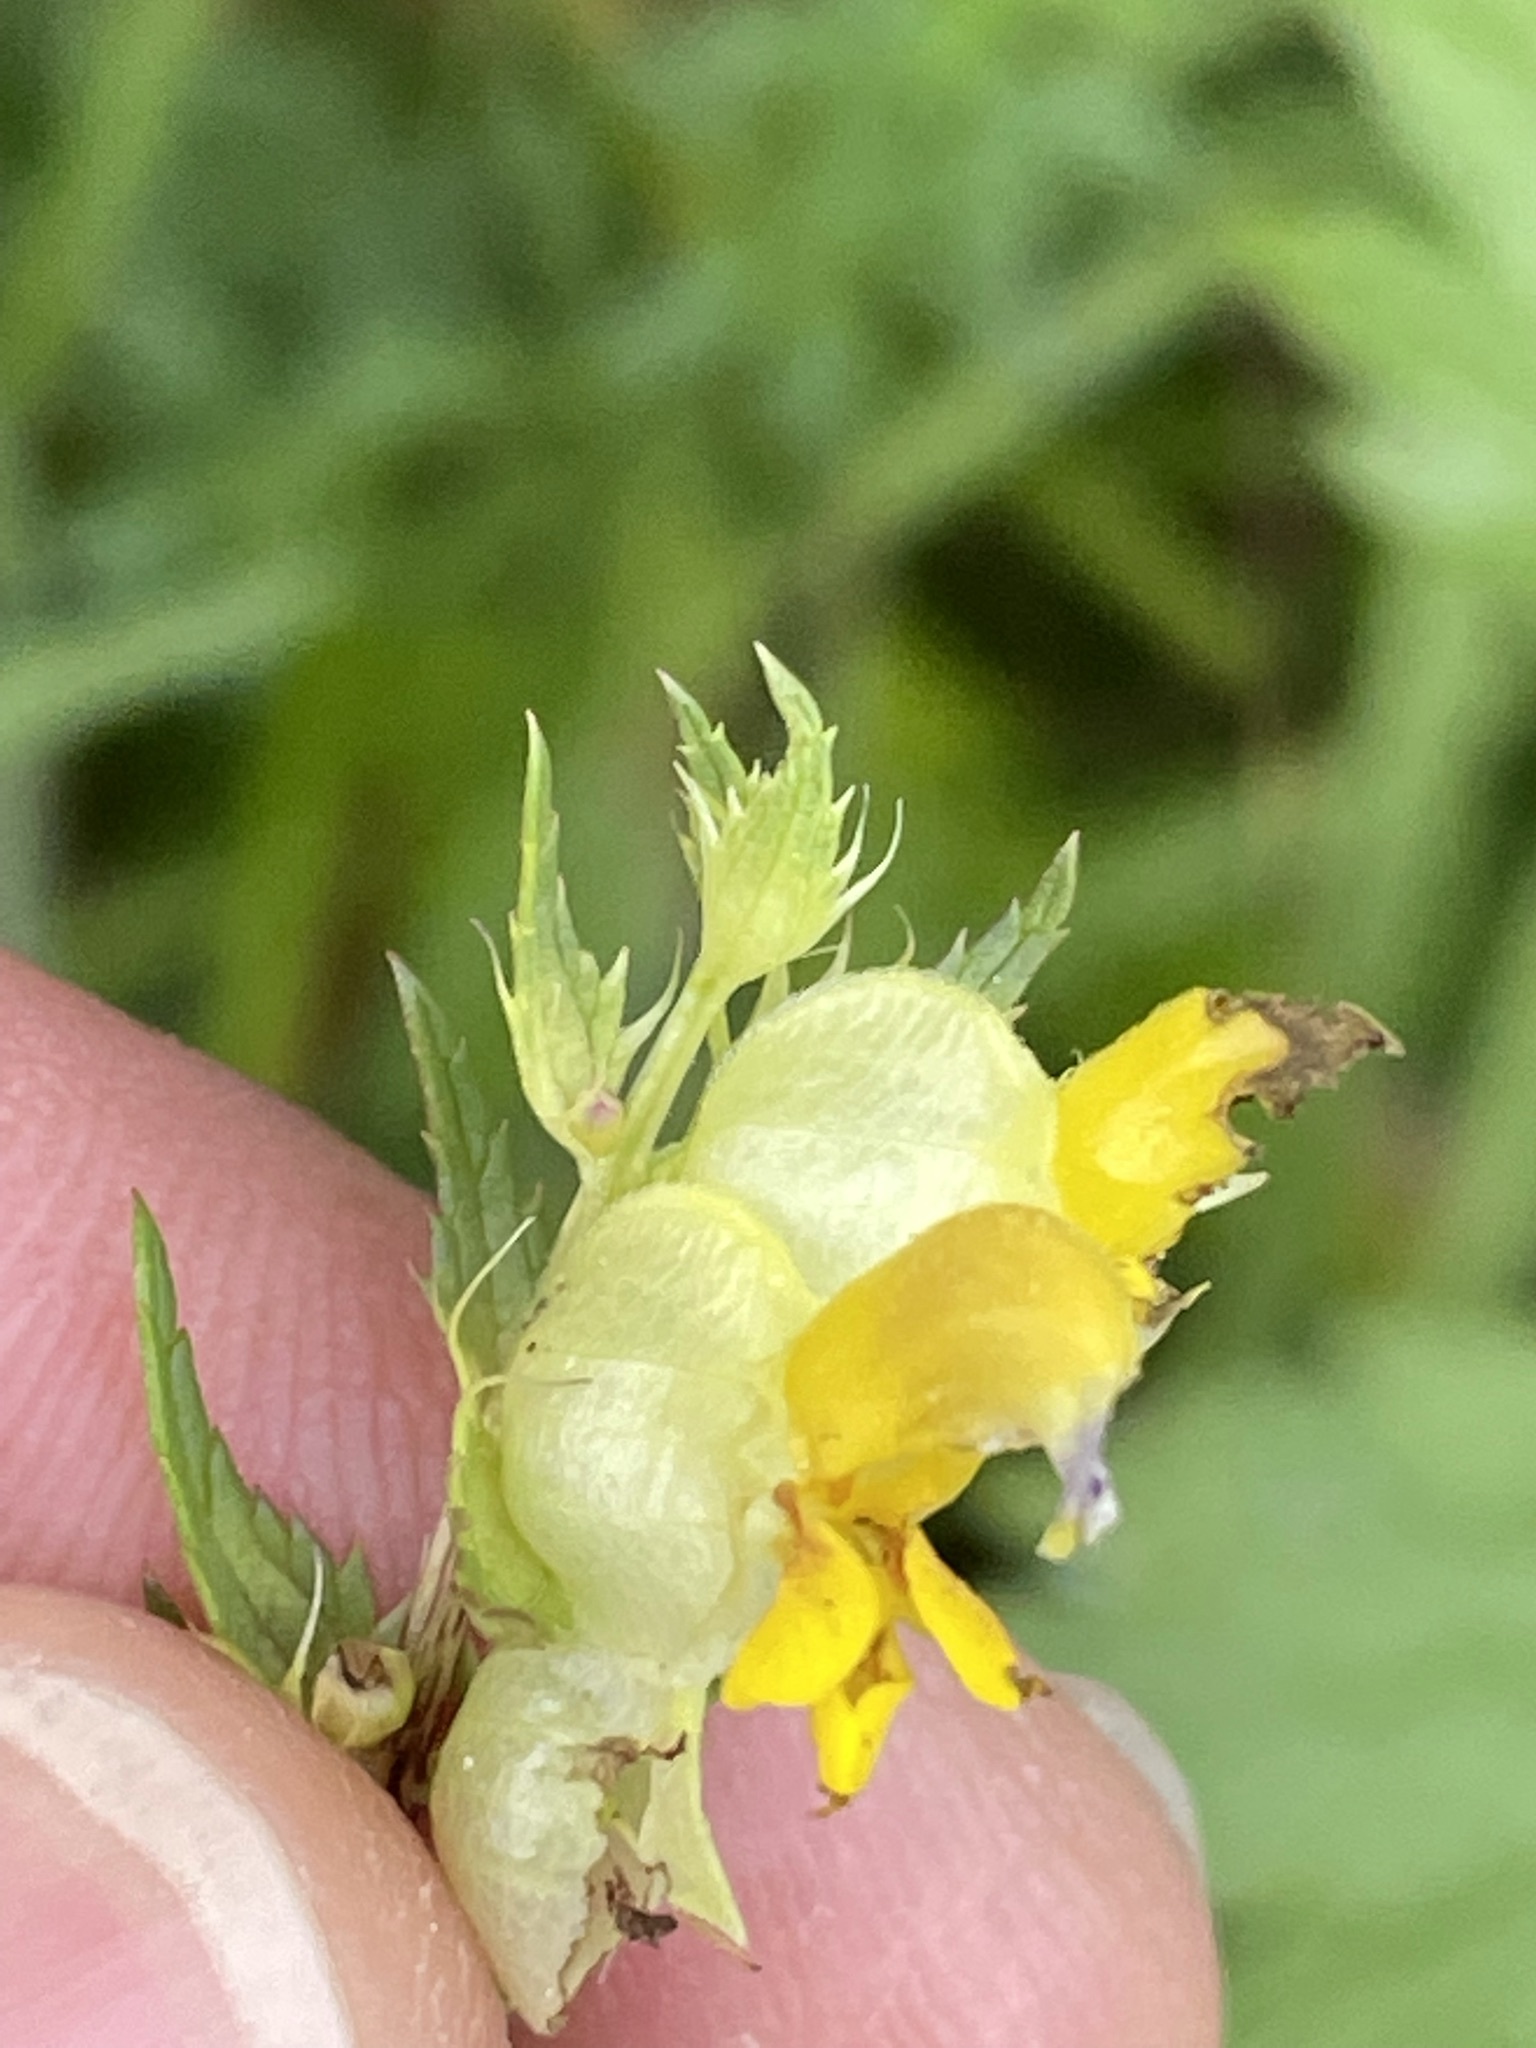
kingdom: Plantae
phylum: Tracheophyta
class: Magnoliopsida
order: Lamiales
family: Orobanchaceae
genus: Rhinanthus
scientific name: Rhinanthus glacialis
